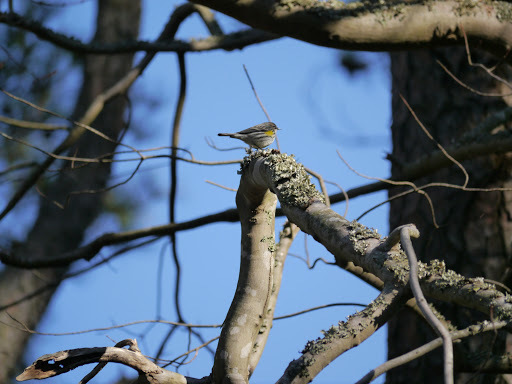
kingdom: Animalia
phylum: Chordata
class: Aves
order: Passeriformes
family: Parulidae
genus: Setophaga
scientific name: Setophaga coronata
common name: Myrtle warbler
